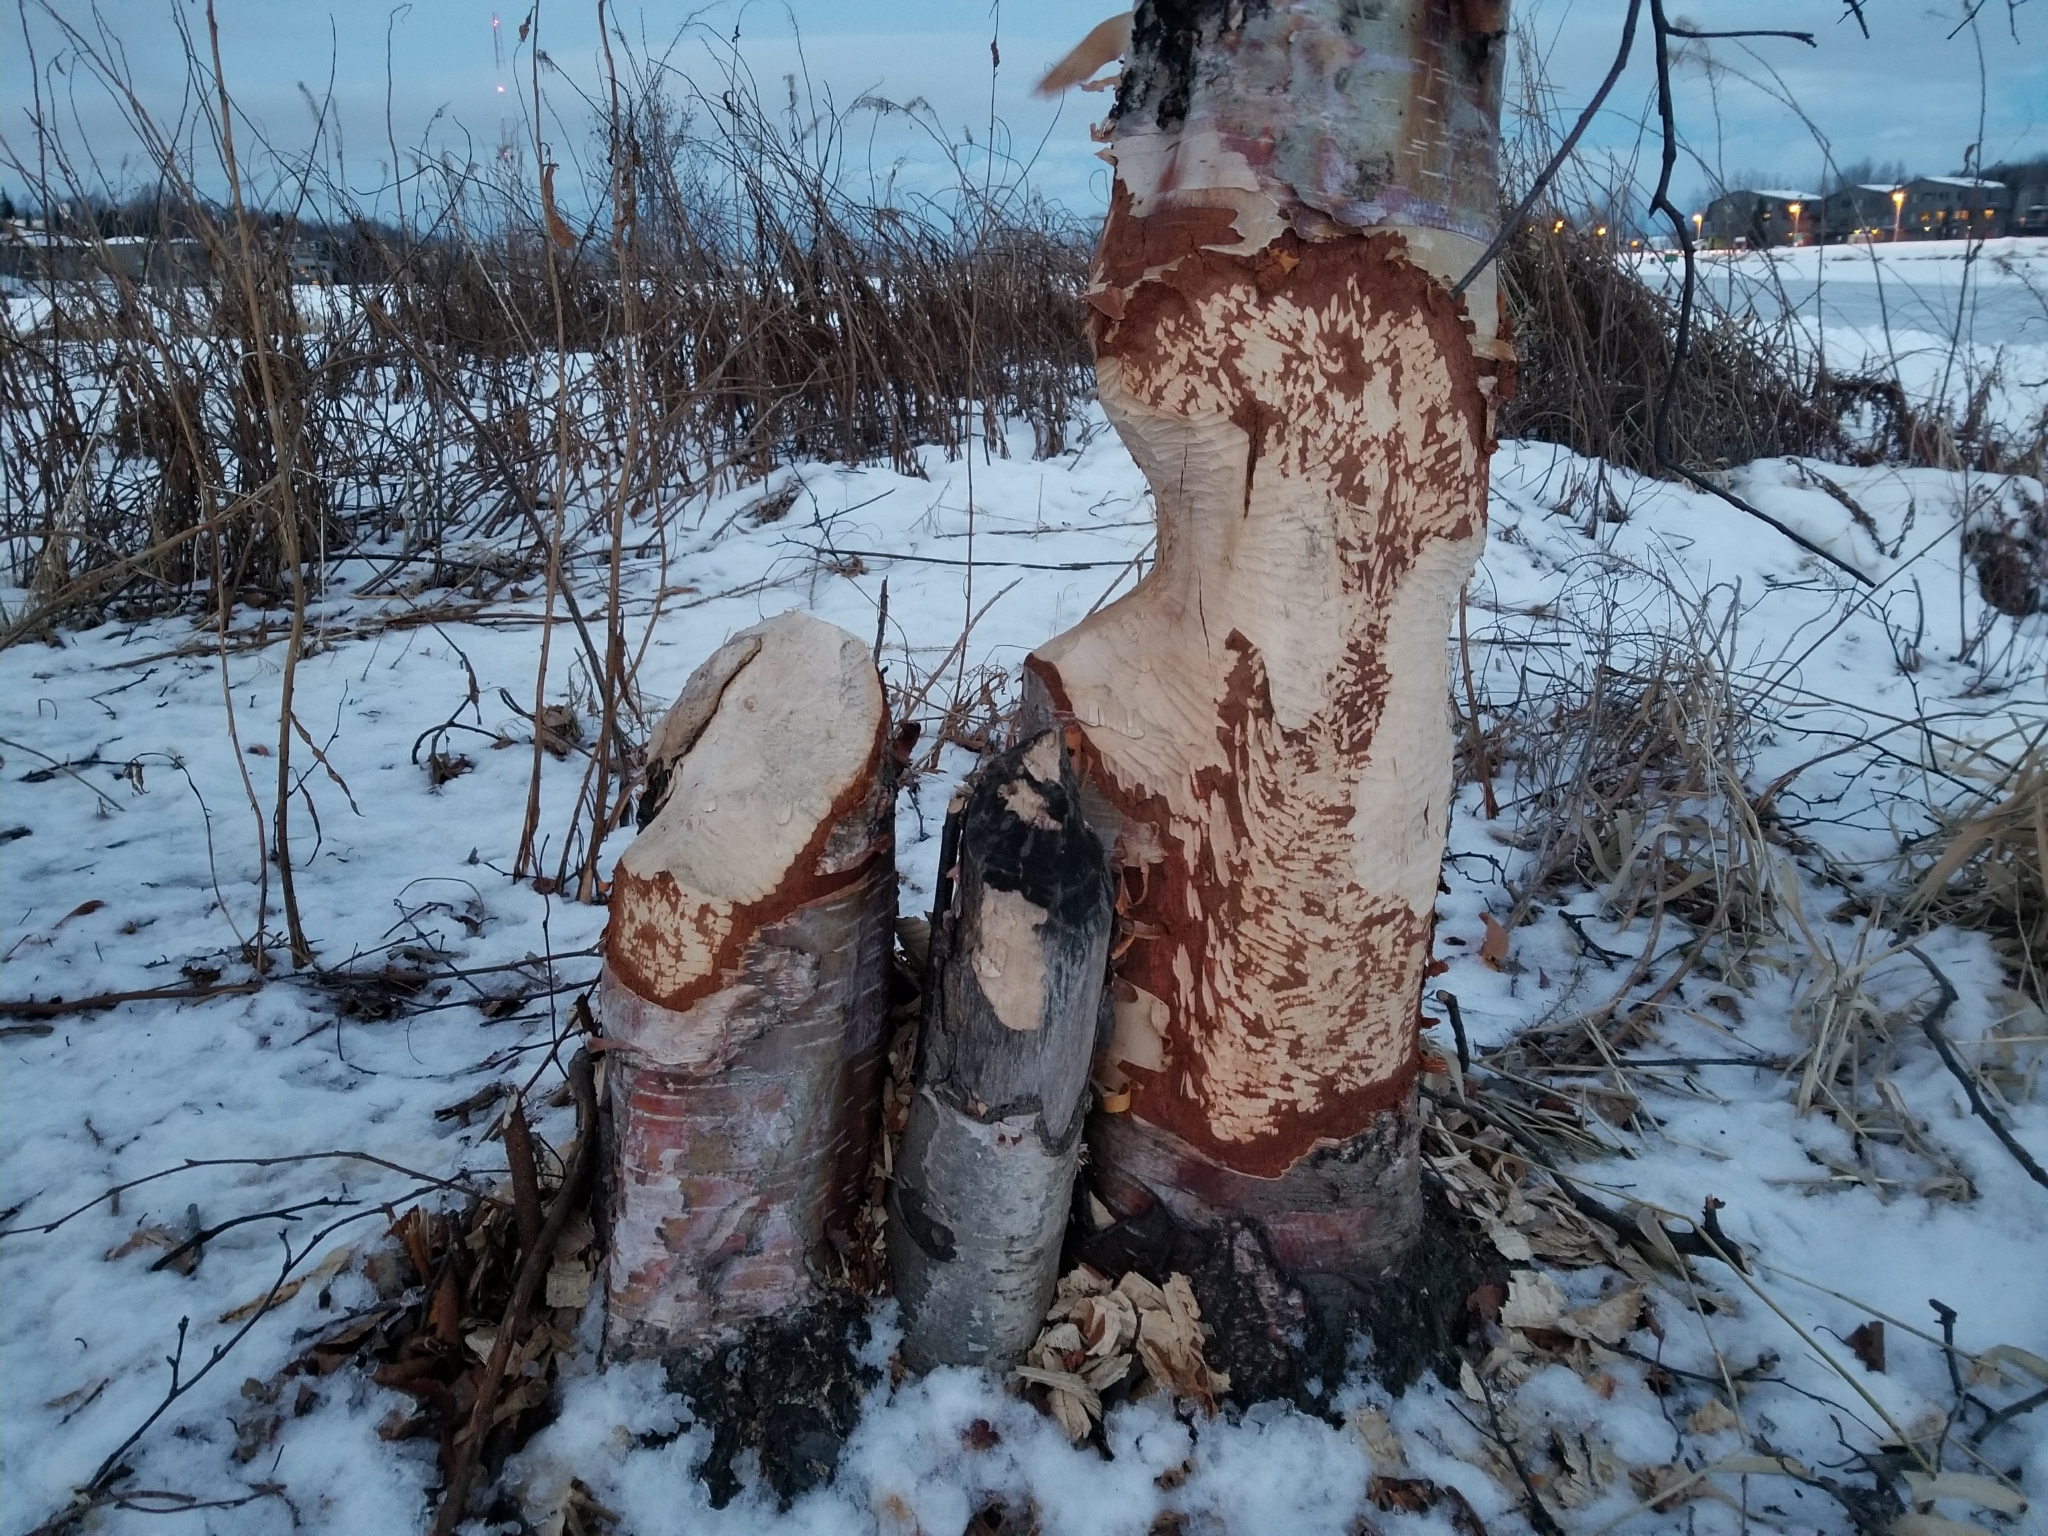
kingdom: Animalia
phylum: Chordata
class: Mammalia
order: Rodentia
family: Castoridae
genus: Castor
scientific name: Castor canadensis
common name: American beaver
